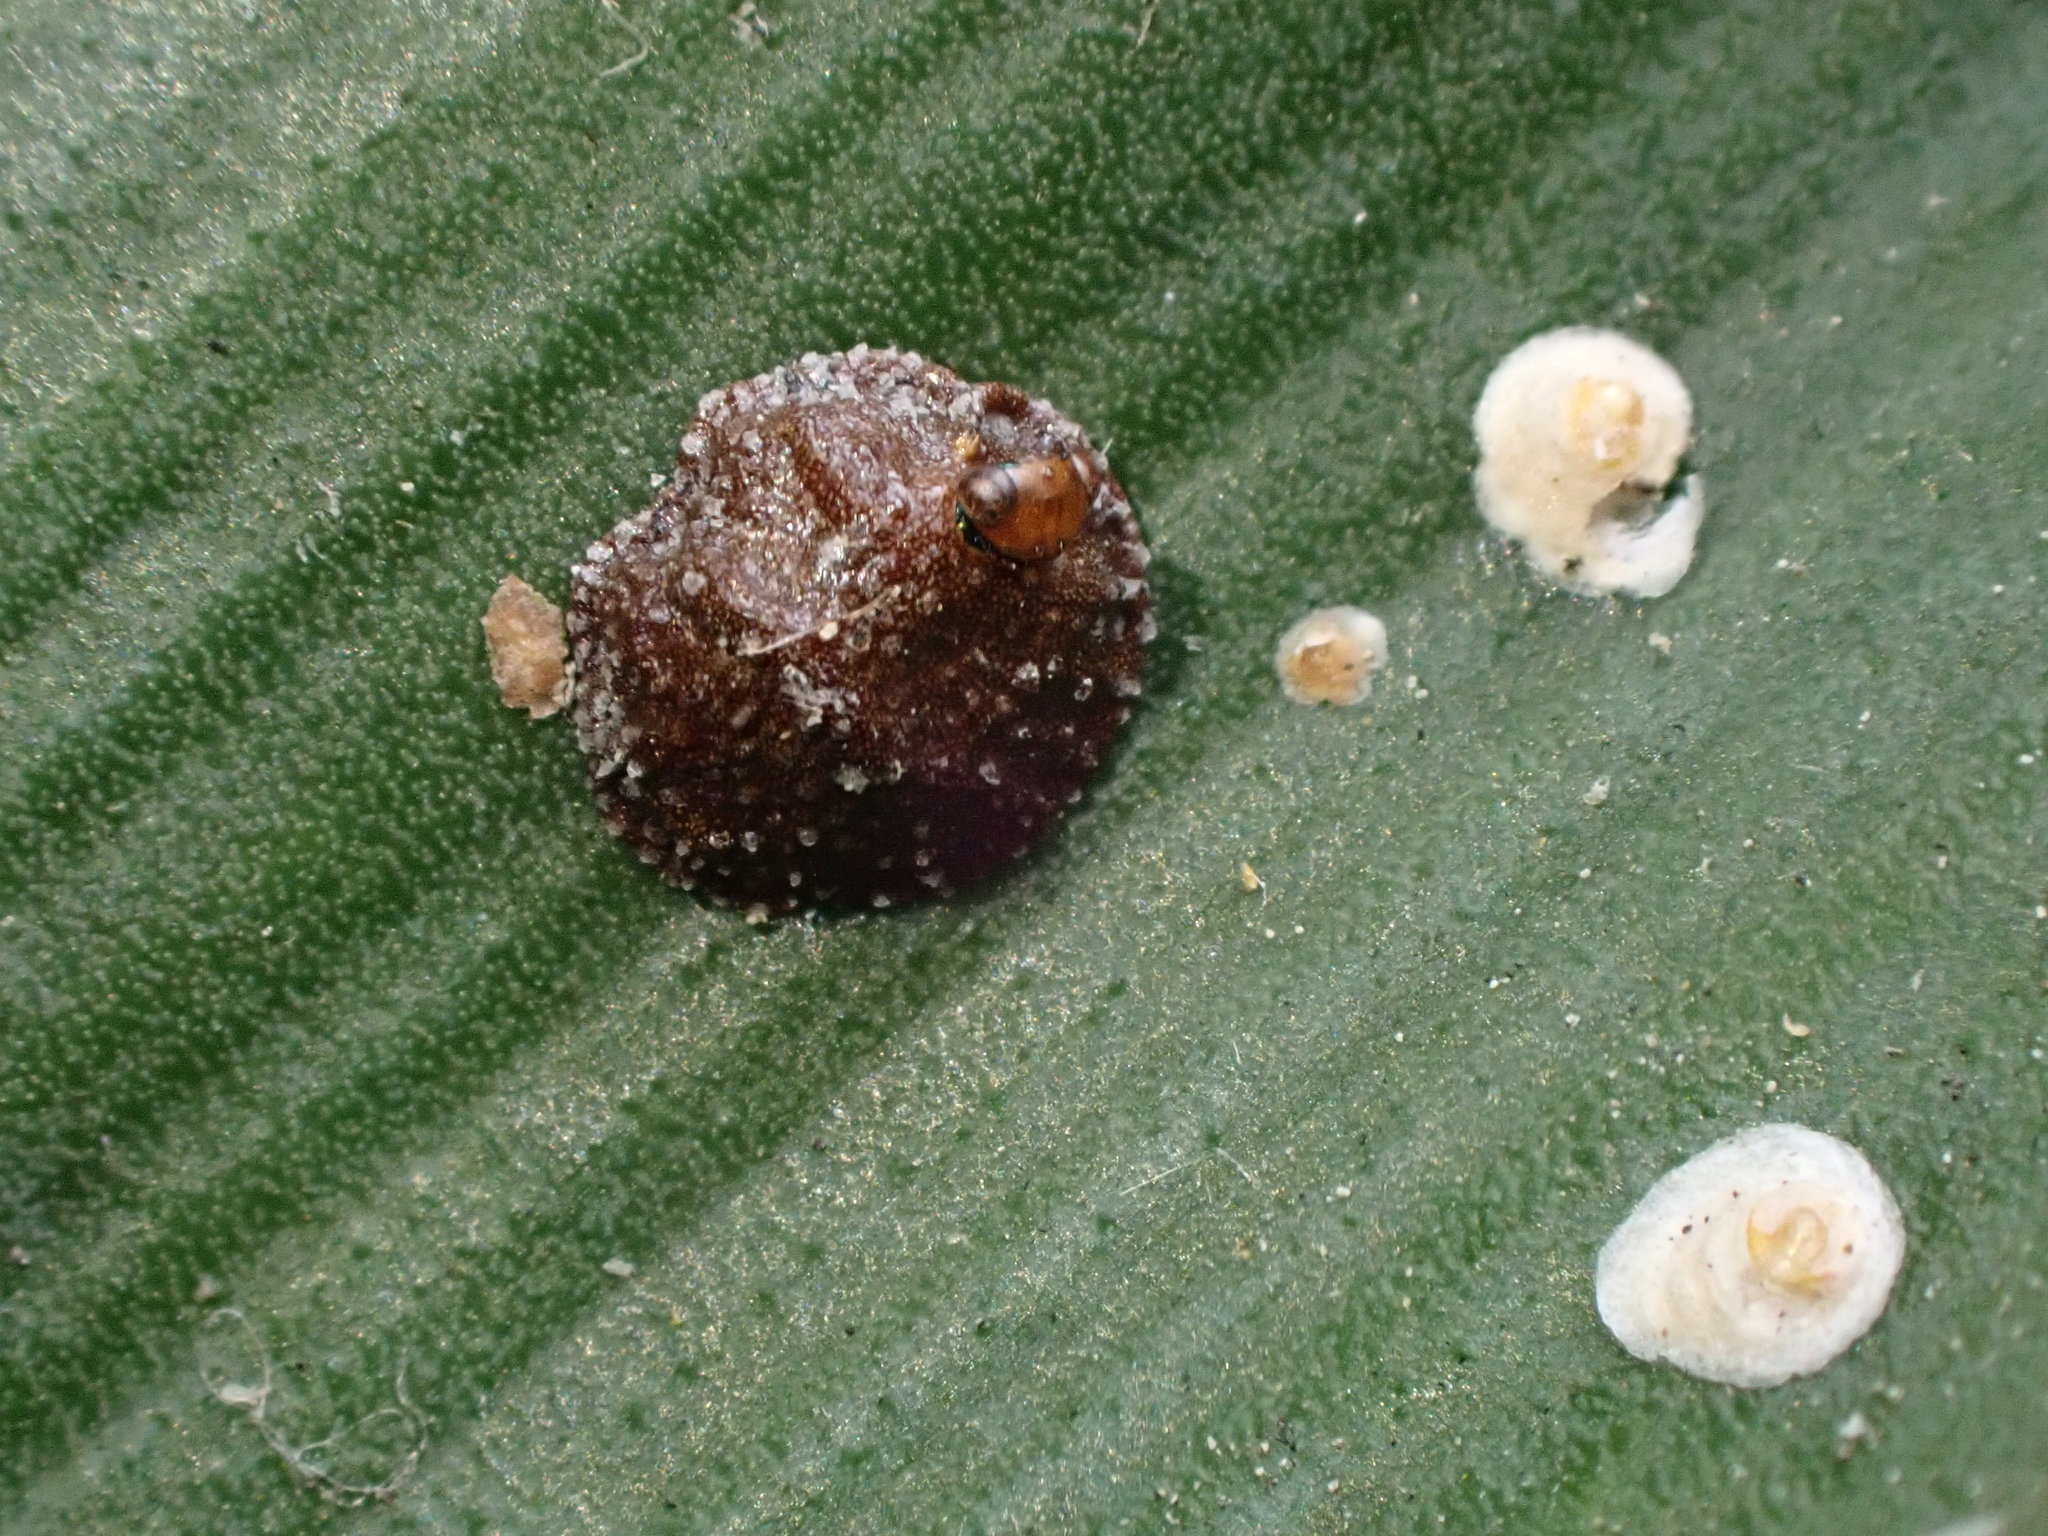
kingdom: Animalia
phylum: Arthropoda
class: Insecta
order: Hemiptera
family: Diaspididae
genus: Hemiberlesia
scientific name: Hemiberlesia lataniae
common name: Latania scale
